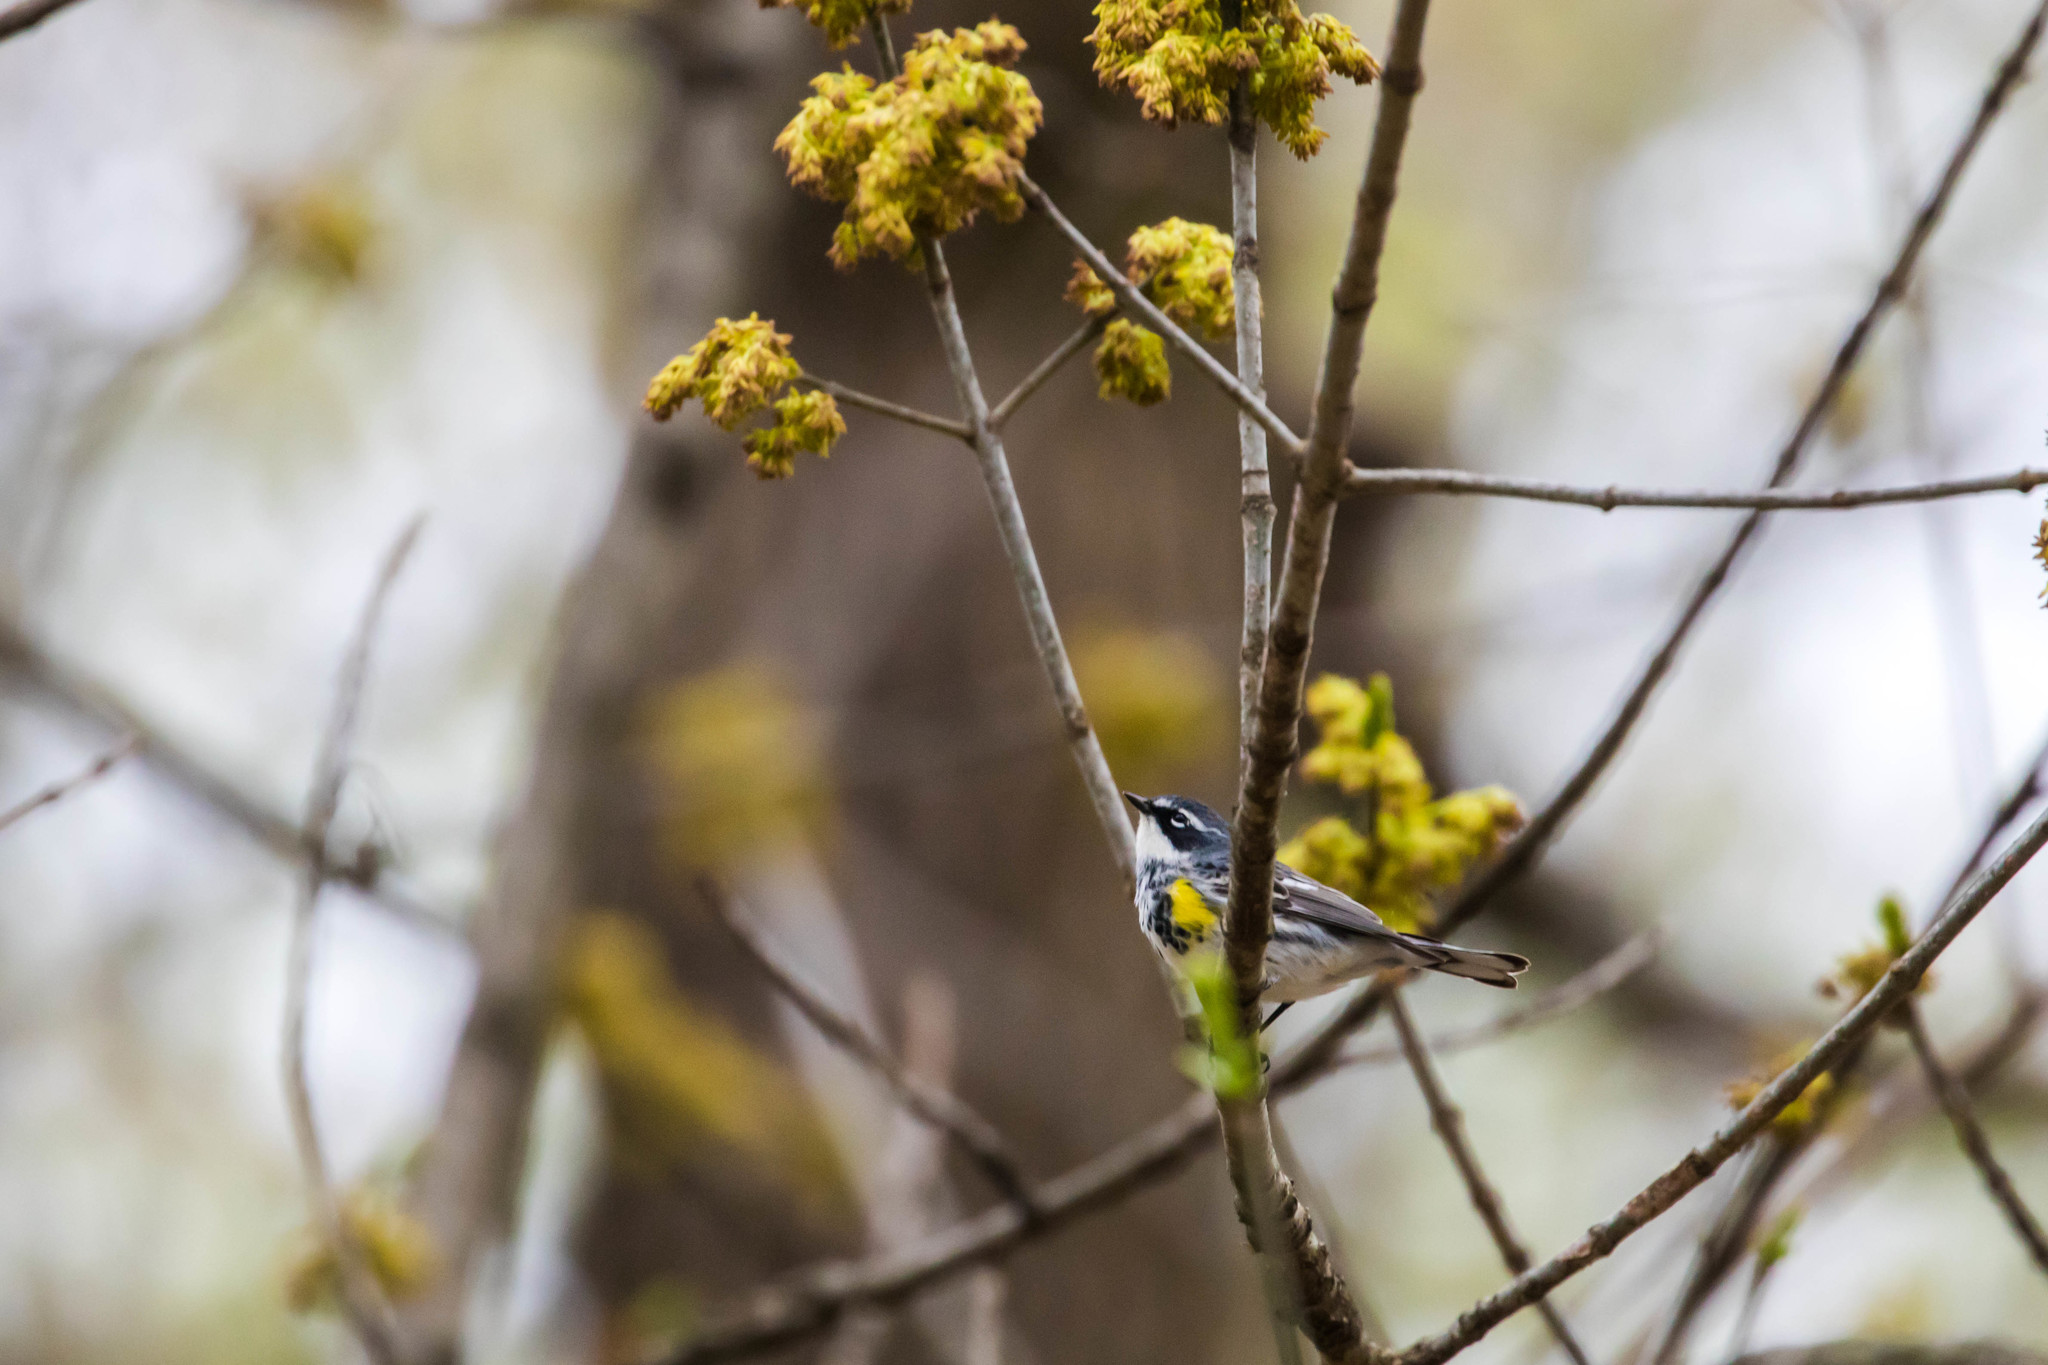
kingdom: Animalia
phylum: Chordata
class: Aves
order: Passeriformes
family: Parulidae
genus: Setophaga
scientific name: Setophaga coronata
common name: Myrtle warbler
